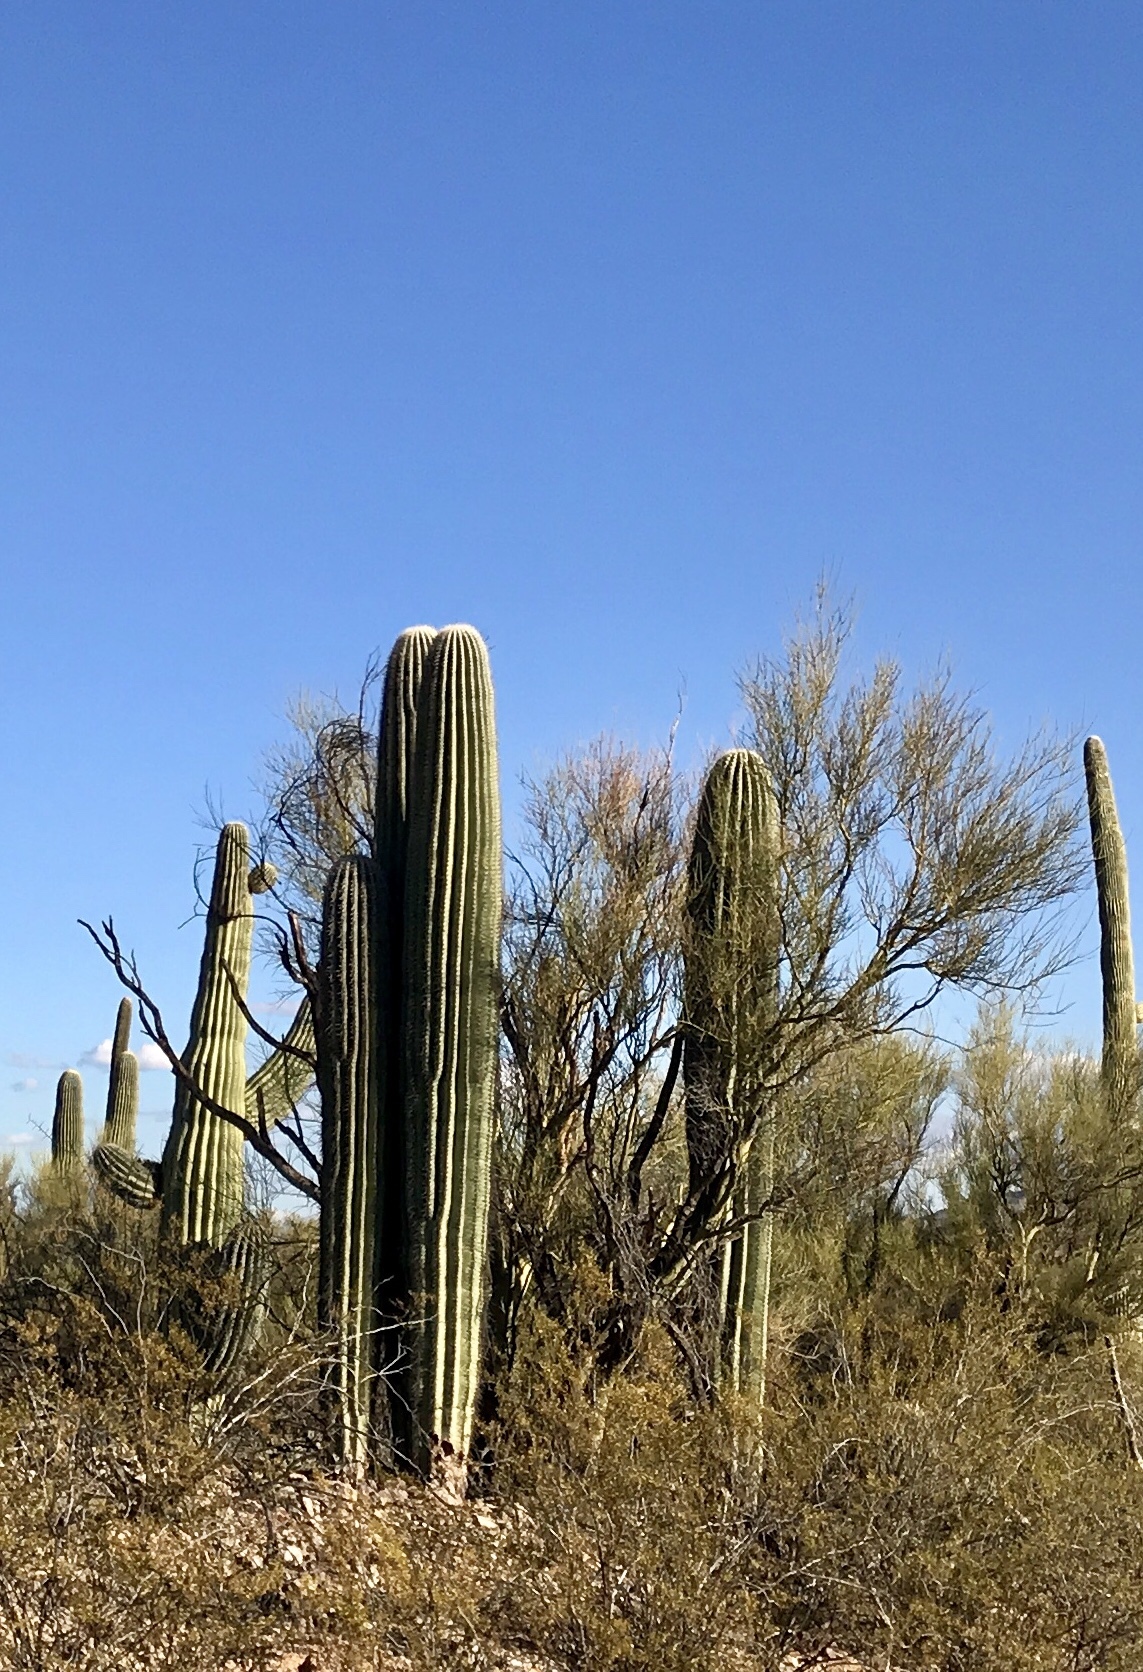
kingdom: Plantae
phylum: Tracheophyta
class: Magnoliopsida
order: Caryophyllales
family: Cactaceae
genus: Carnegiea
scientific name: Carnegiea gigantea
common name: Saguaro
